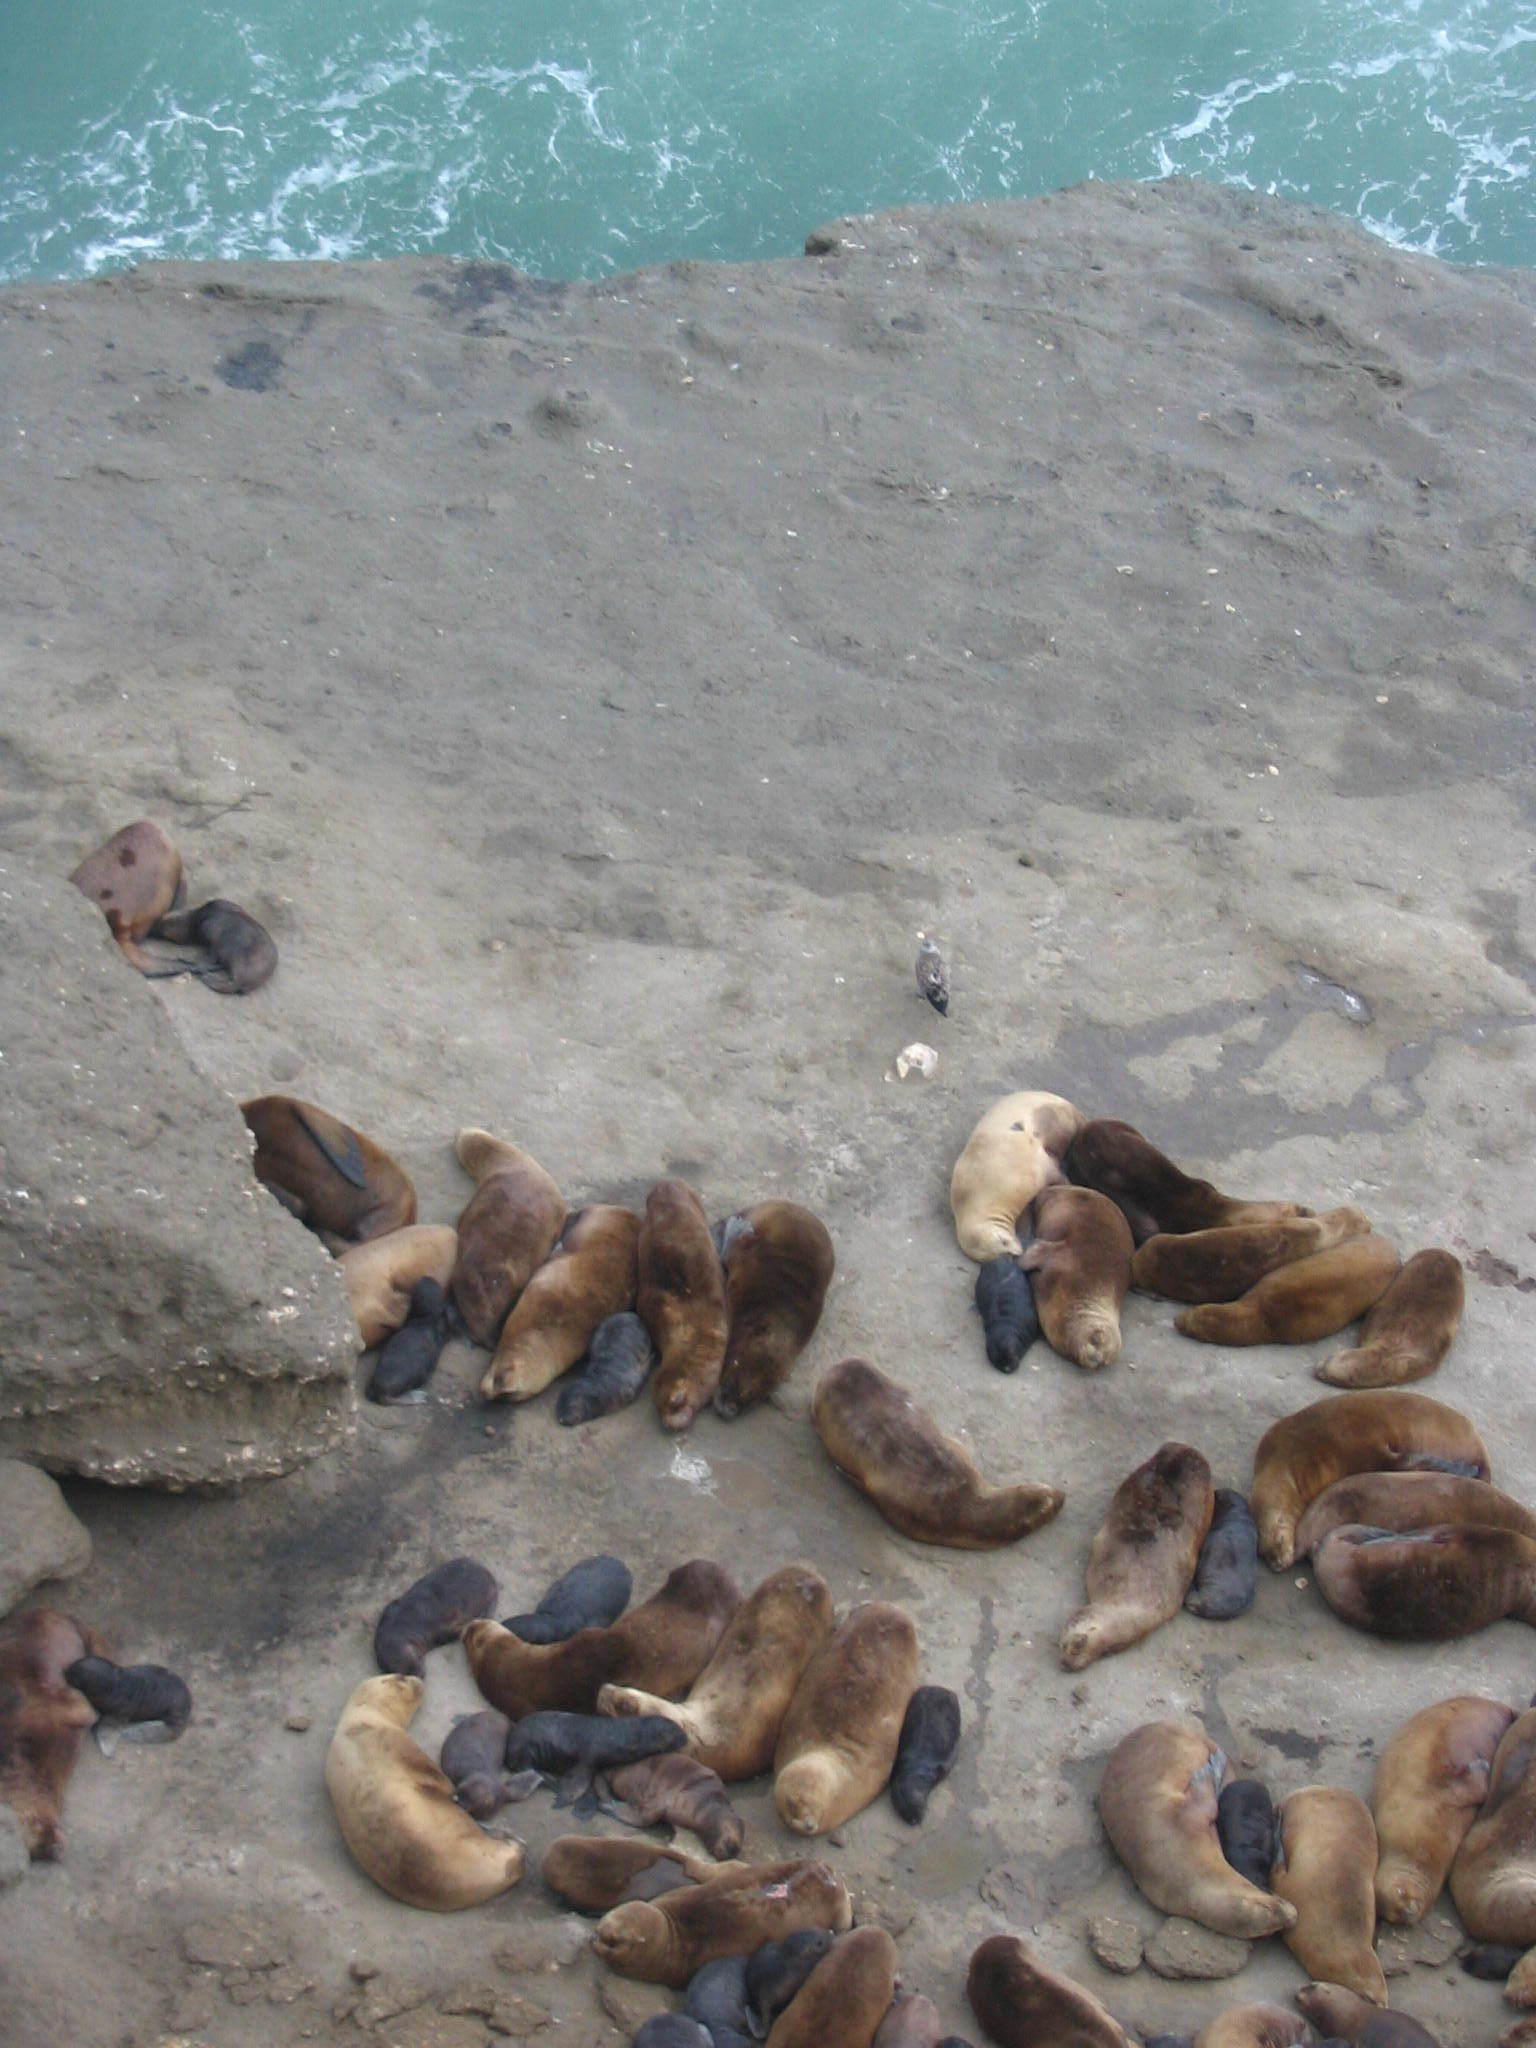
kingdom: Animalia
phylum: Chordata
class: Mammalia
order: Carnivora
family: Otariidae
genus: Otaria
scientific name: Otaria byronia
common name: South american sea lion
